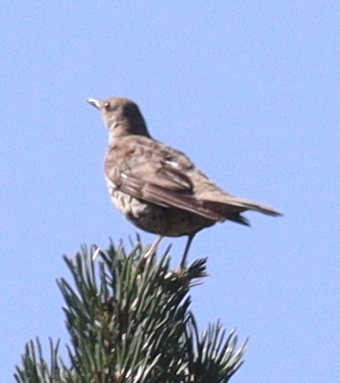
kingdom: Animalia
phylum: Chordata
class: Aves
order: Passeriformes
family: Turdidae
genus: Turdus
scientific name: Turdus viscivorus
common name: Mistle thrush
